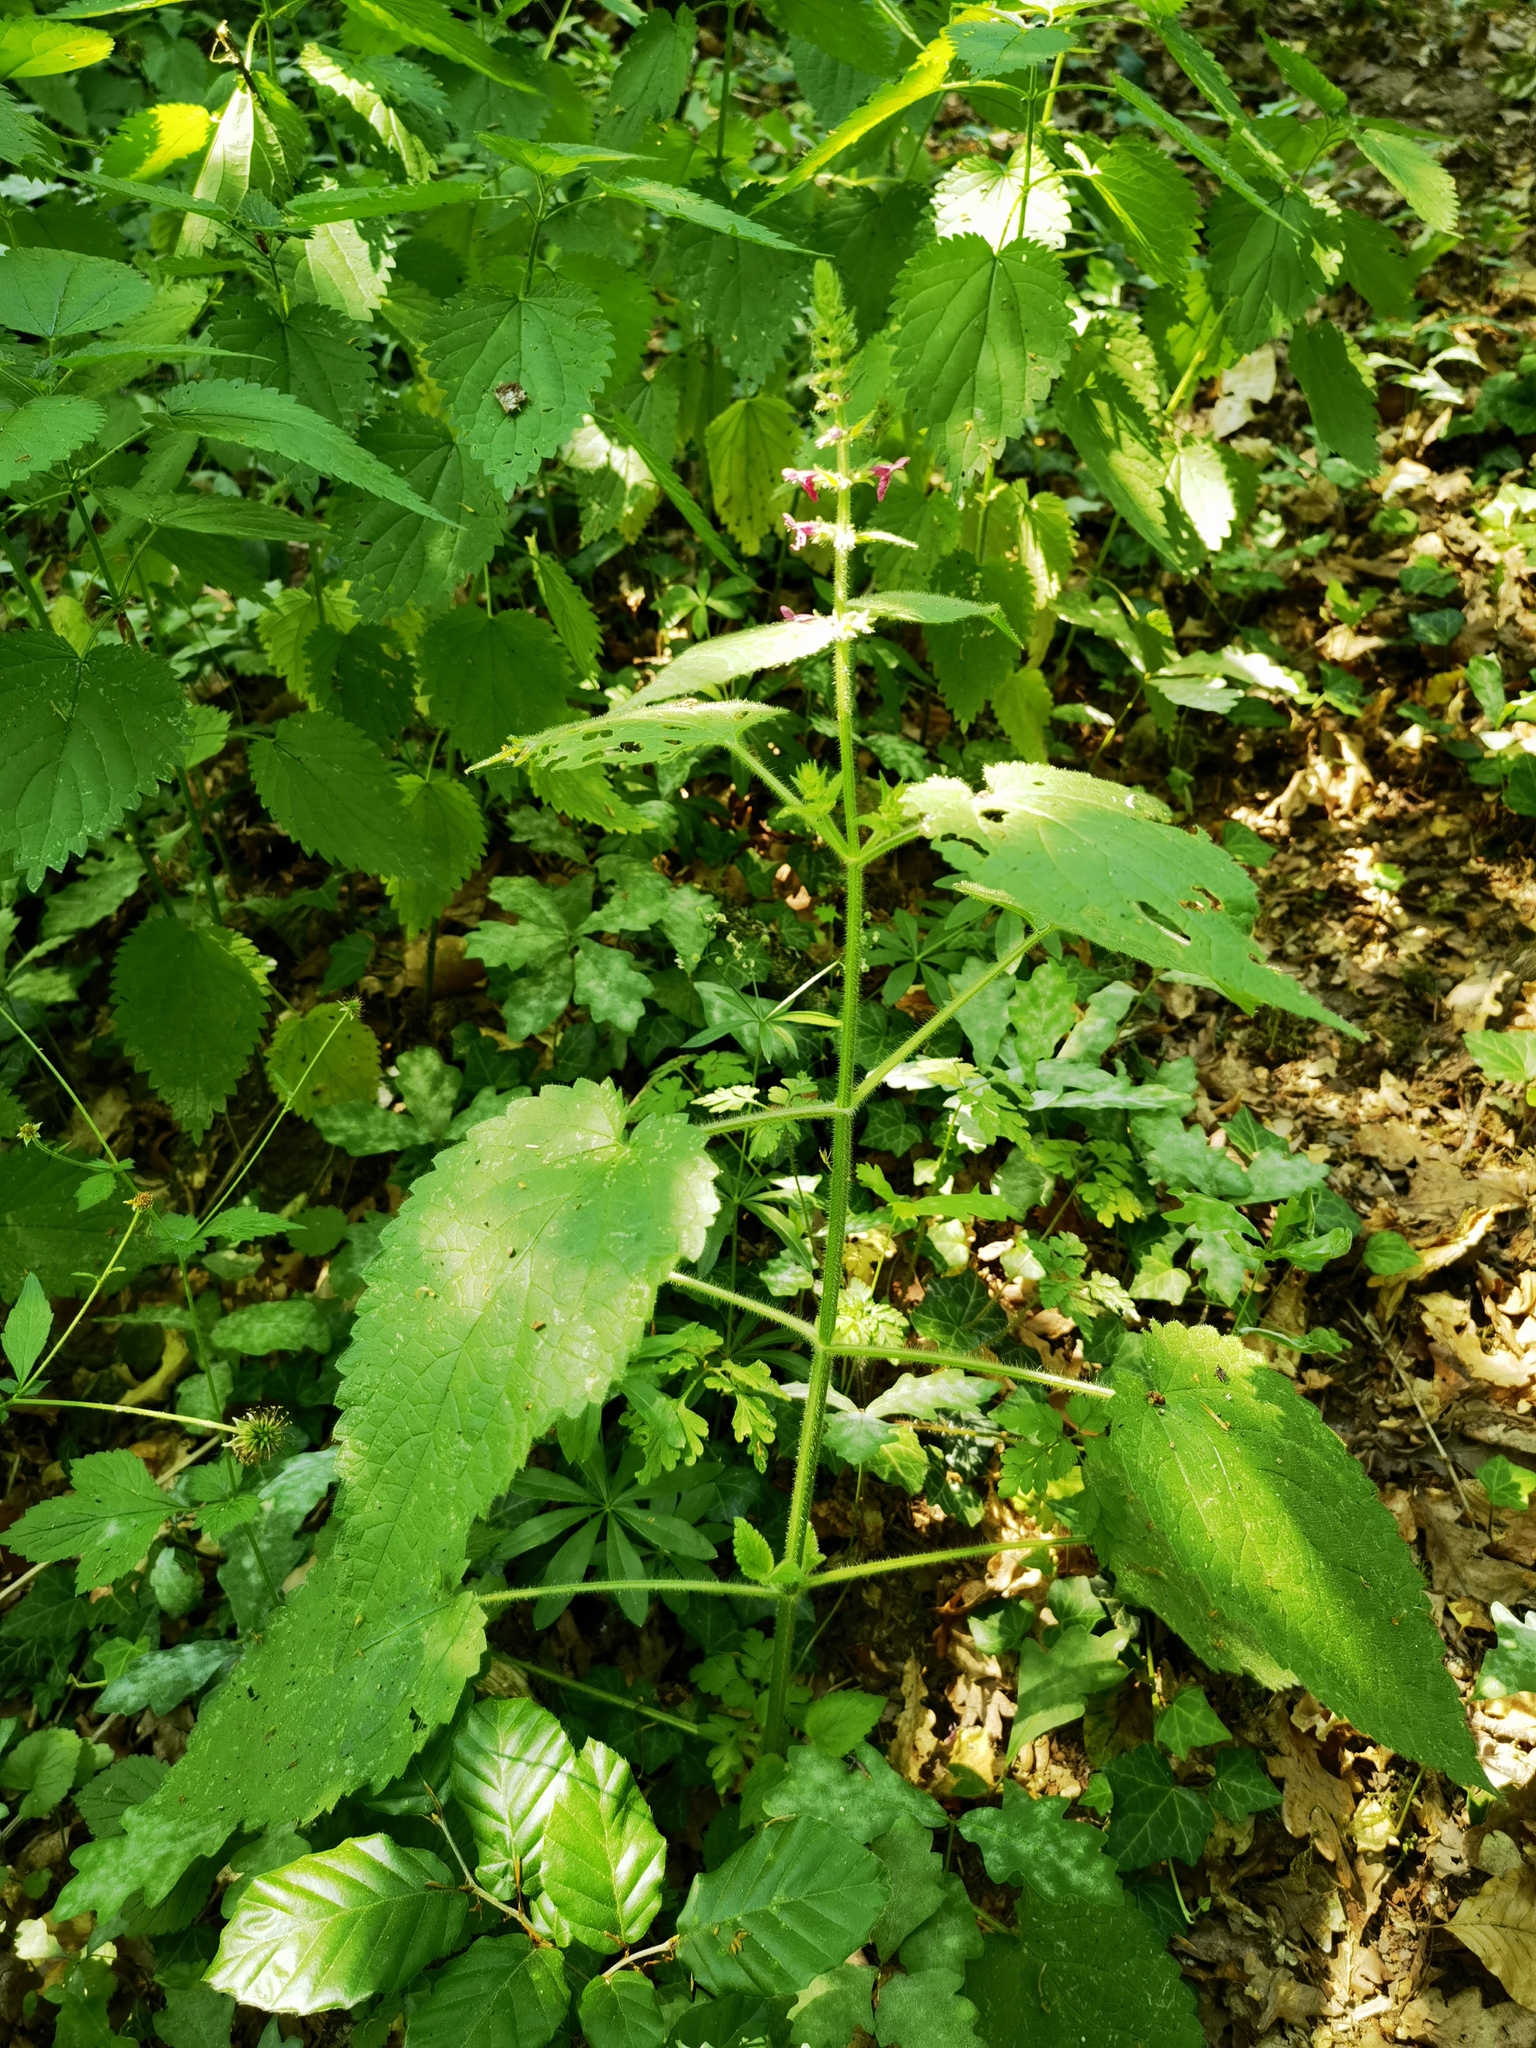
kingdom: Plantae
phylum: Tracheophyta
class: Magnoliopsida
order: Lamiales
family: Lamiaceae
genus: Stachys
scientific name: Stachys sylvatica
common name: Hedge woundwort
